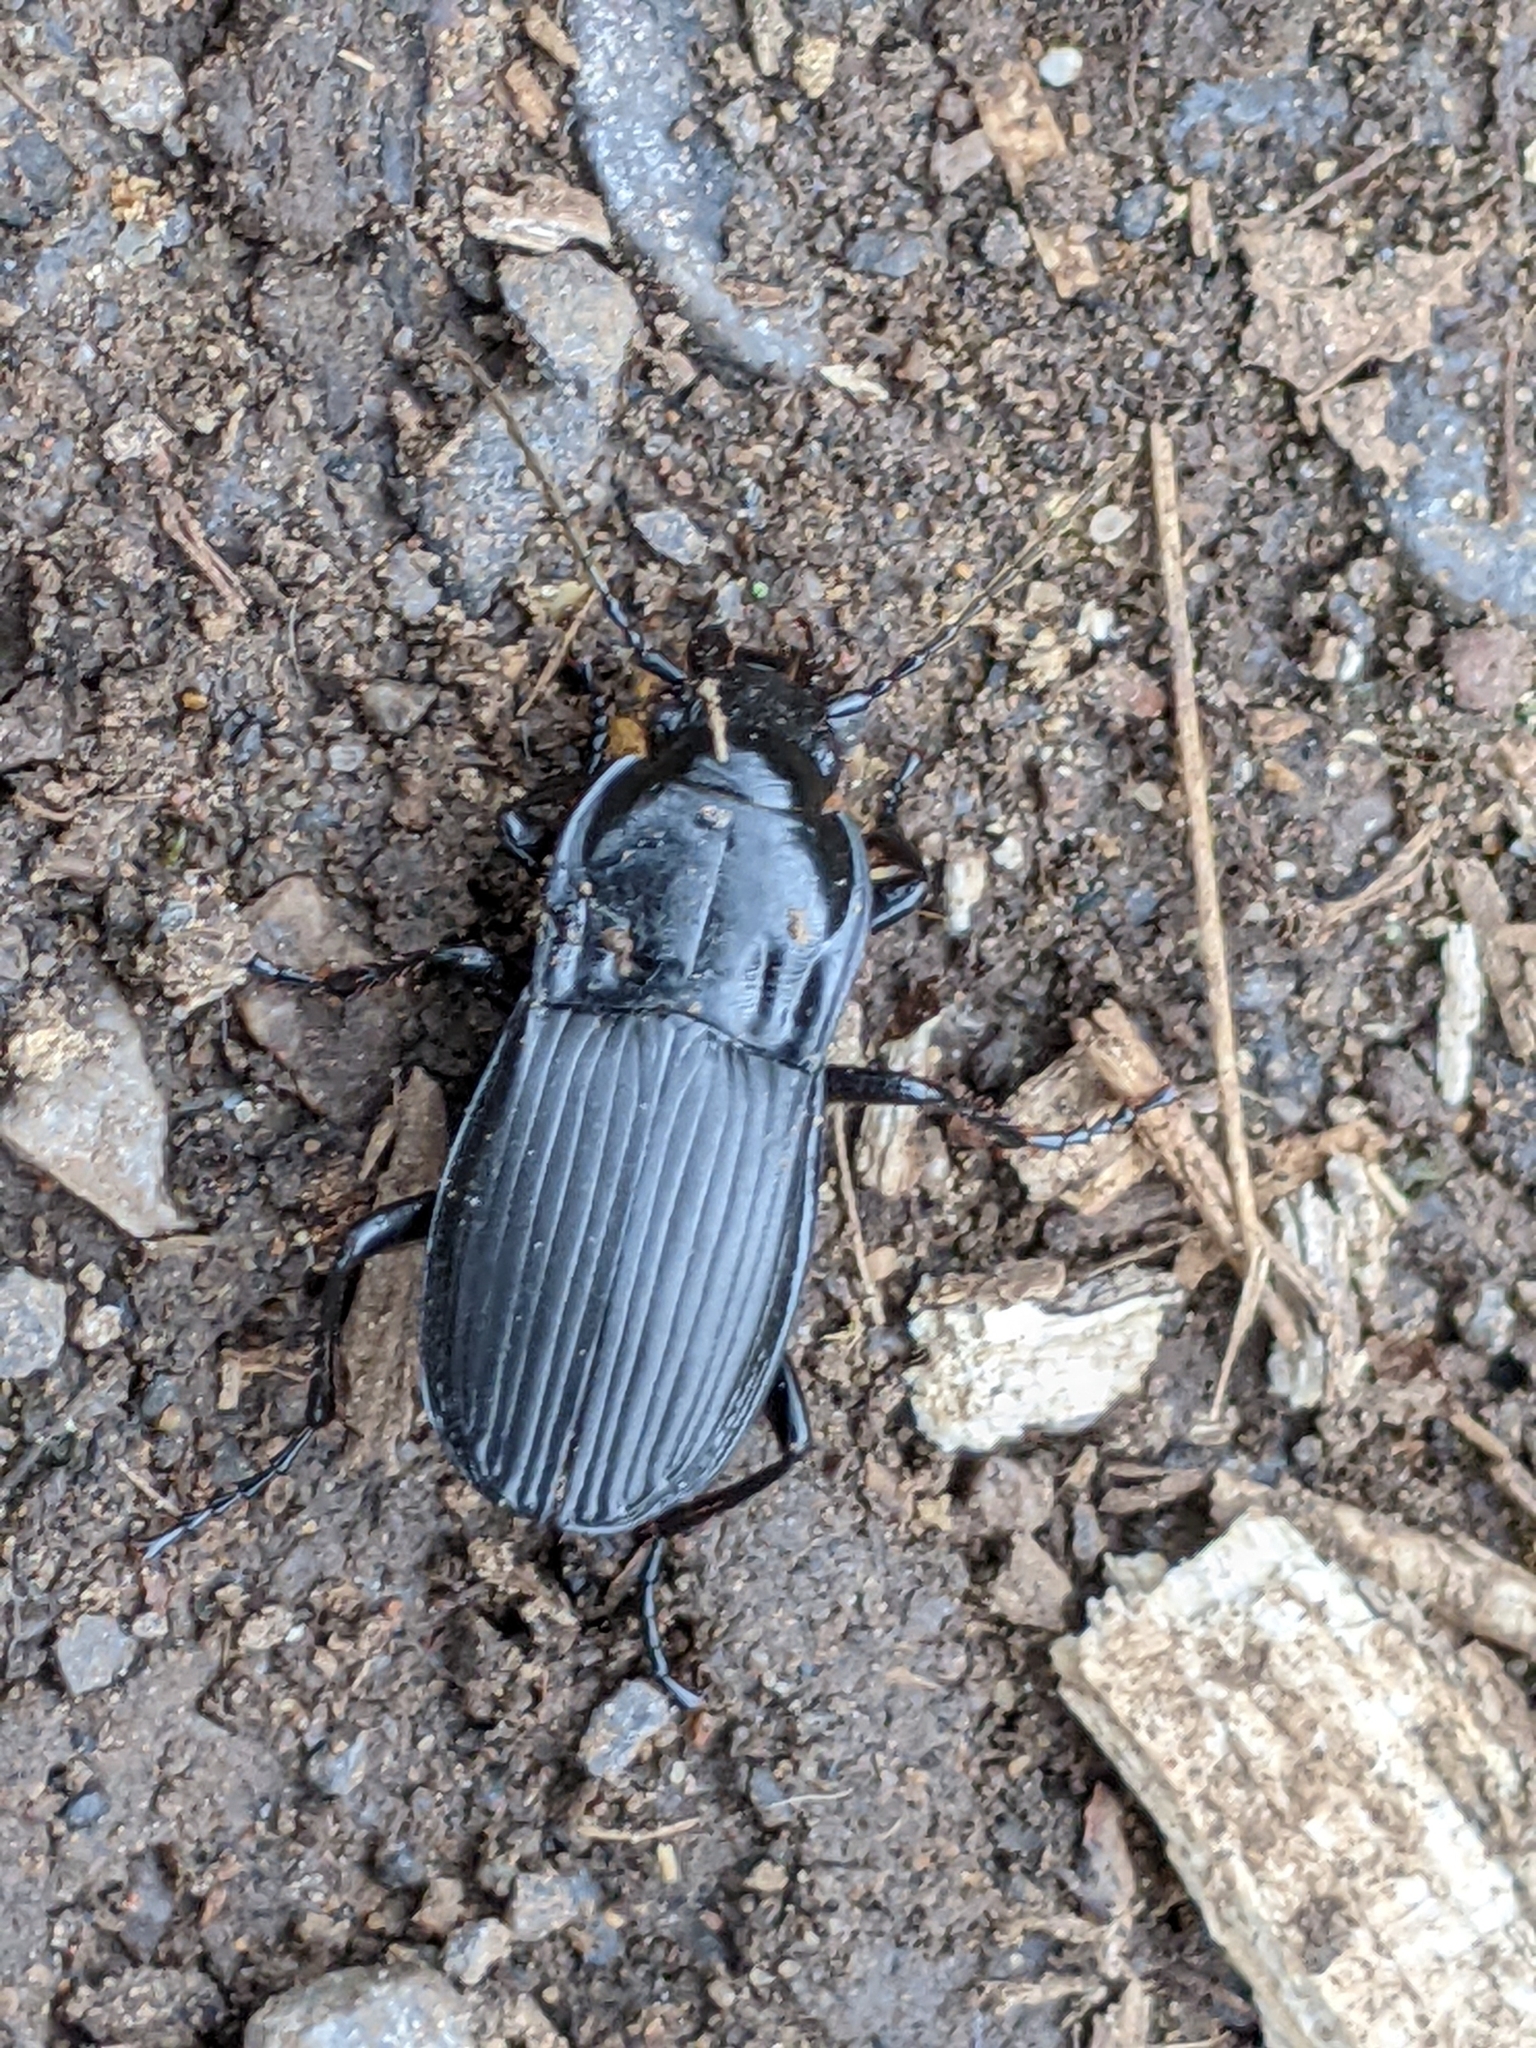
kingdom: Animalia
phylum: Arthropoda
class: Insecta
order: Coleoptera
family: Carabidae
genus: Abax
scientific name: Abax parallelepipedus
